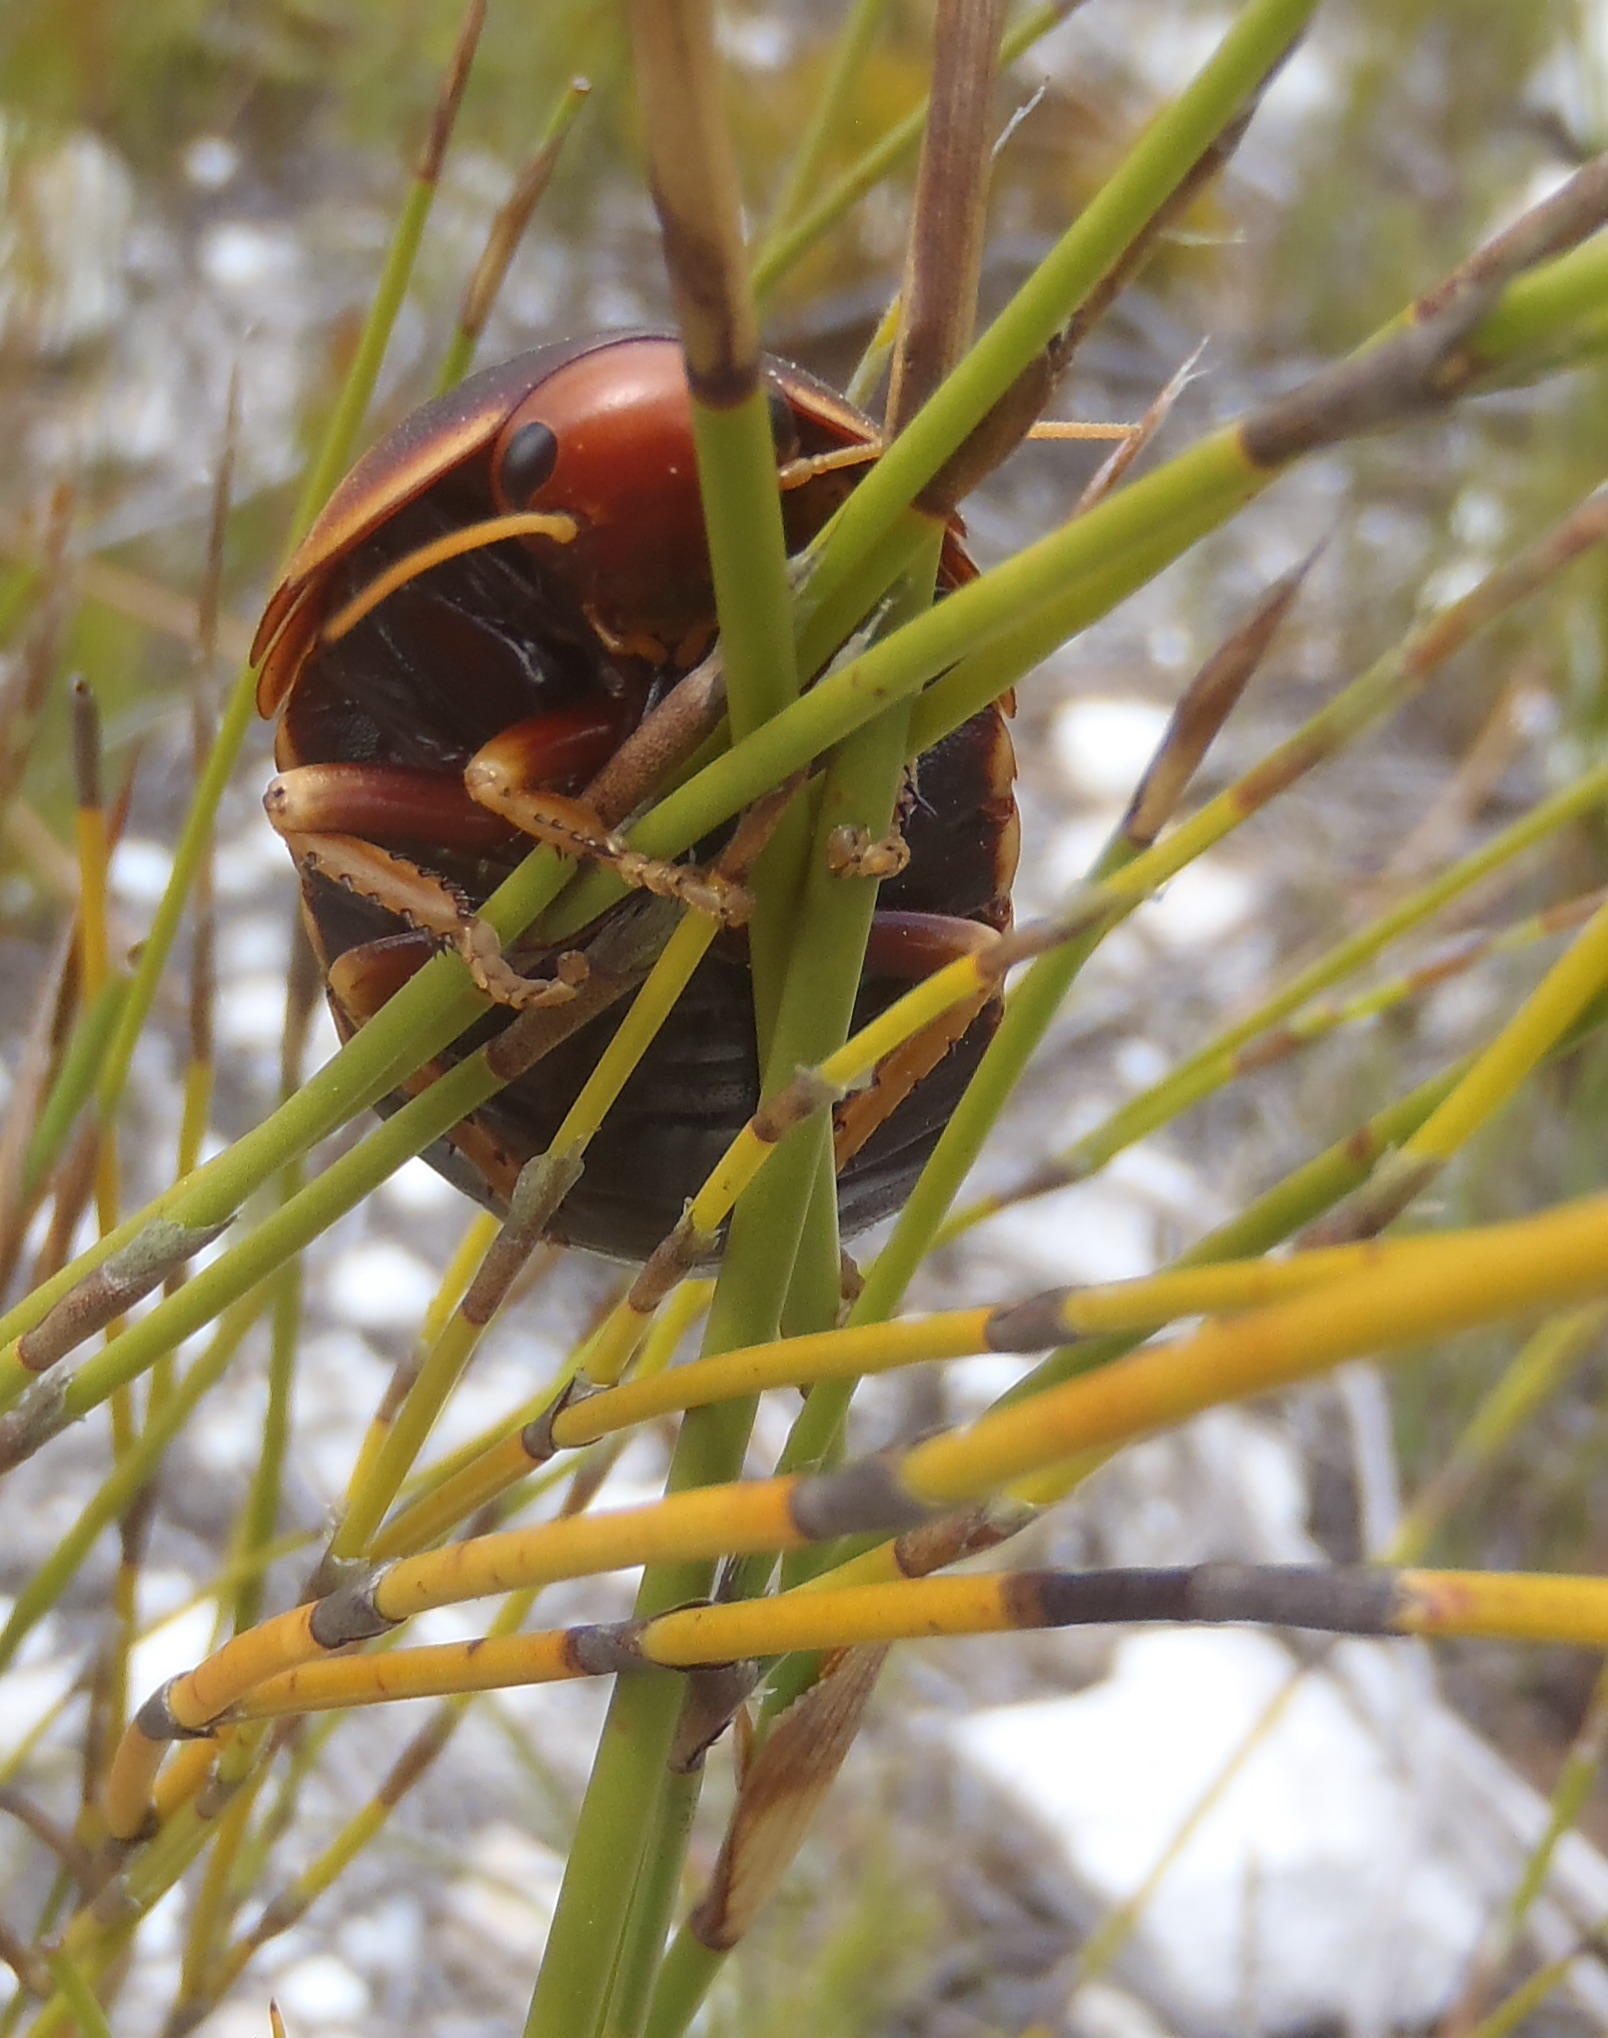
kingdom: Animalia
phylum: Arthropoda
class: Insecta
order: Blattodea
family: Blaberidae
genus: Aptera
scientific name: Aptera fusca
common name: Cape mountain cockroach
